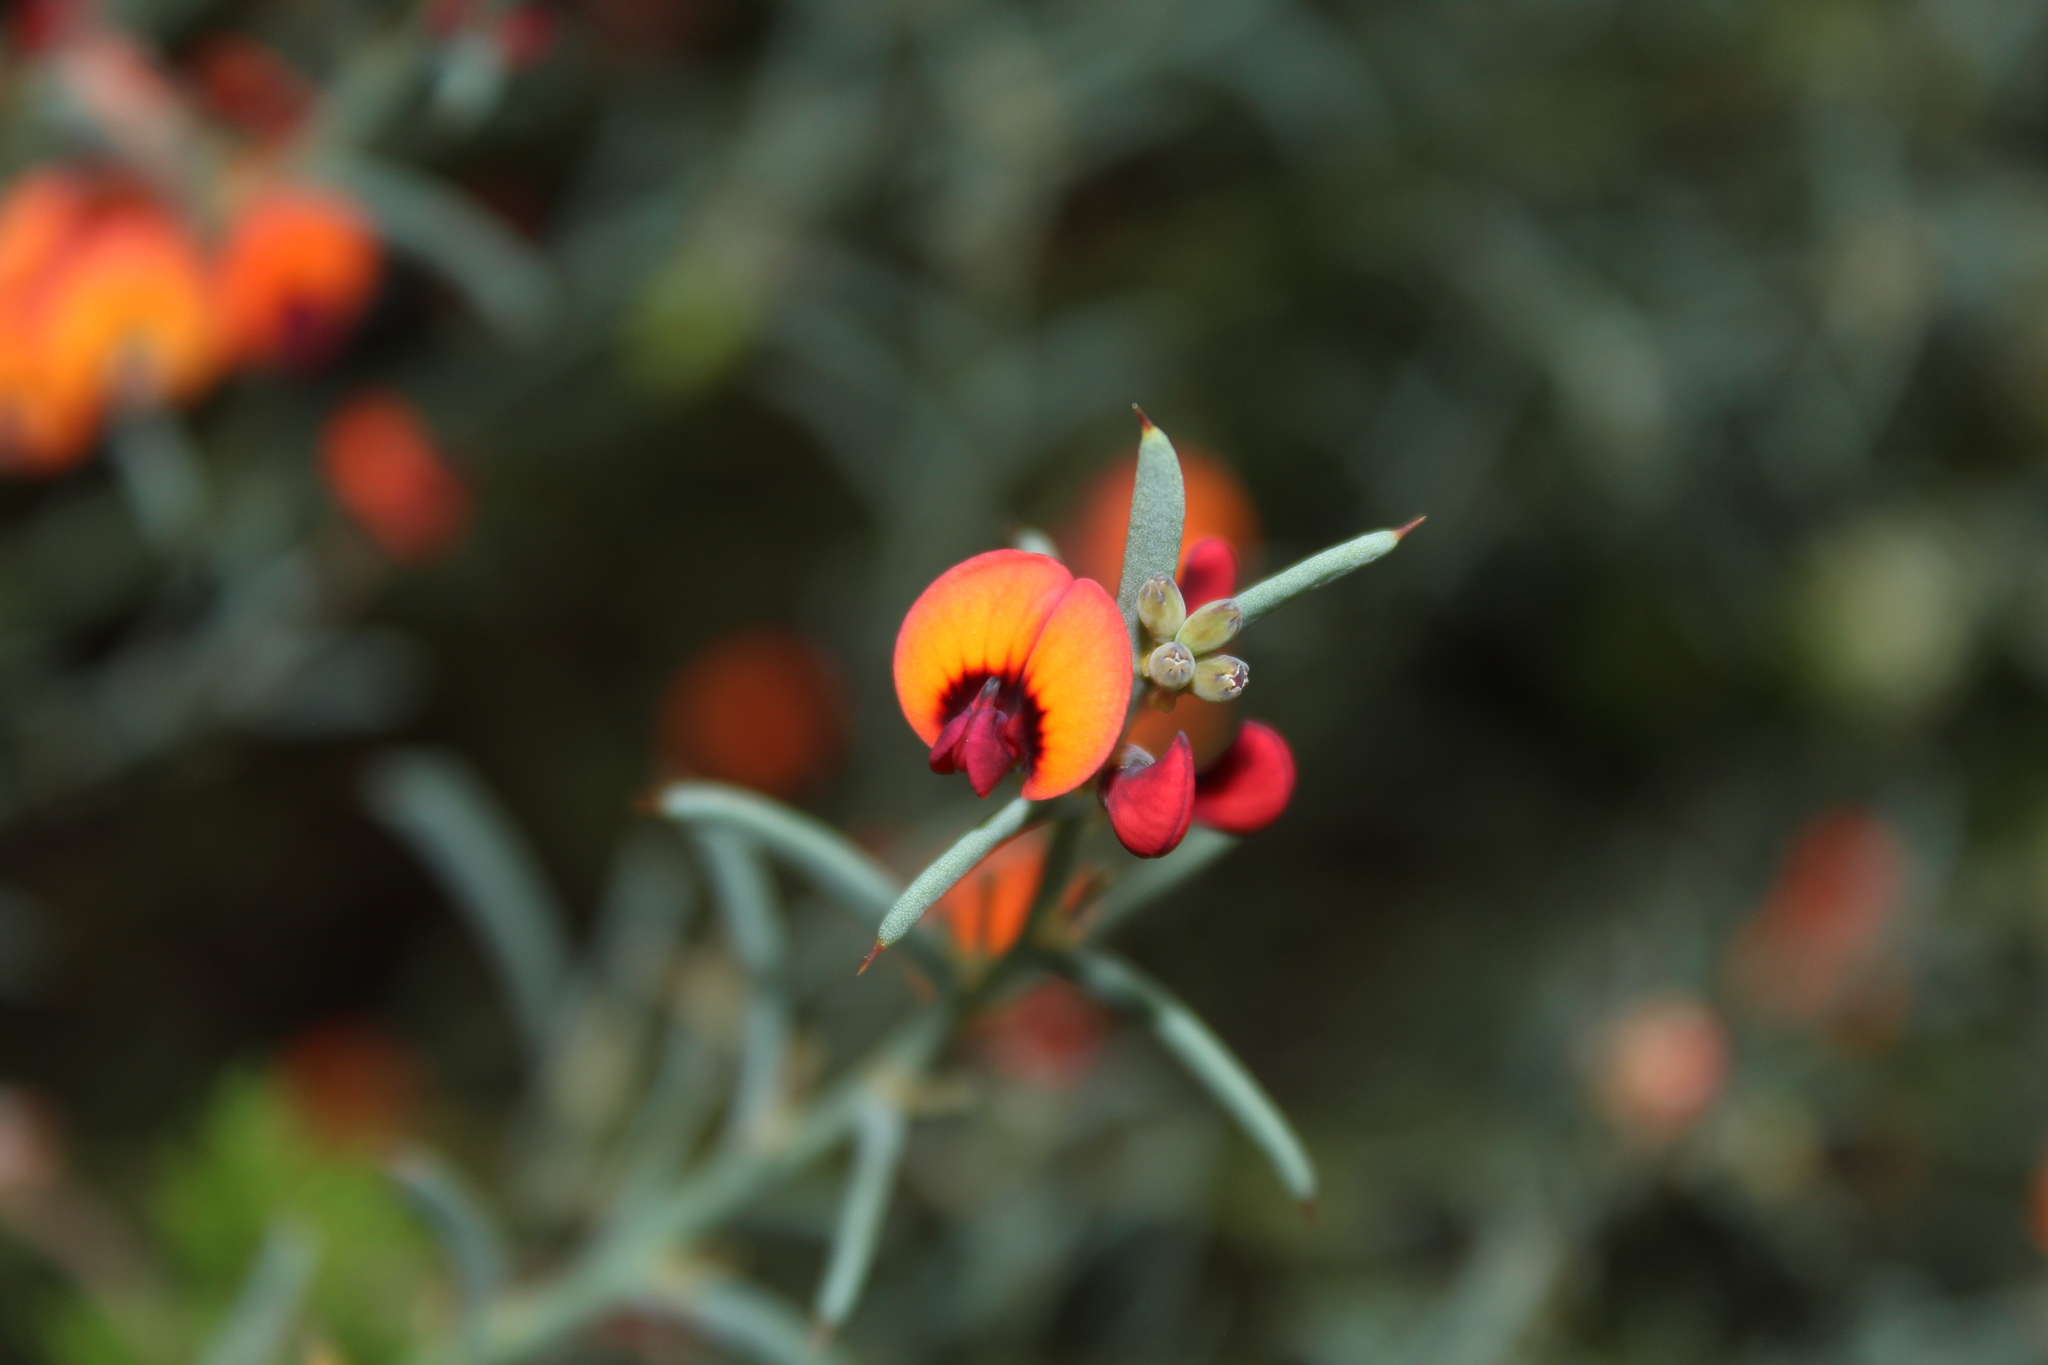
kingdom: Plantae
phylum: Tracheophyta
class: Magnoliopsida
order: Fabales
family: Fabaceae
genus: Daviesia
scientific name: Daviesia incrassata
